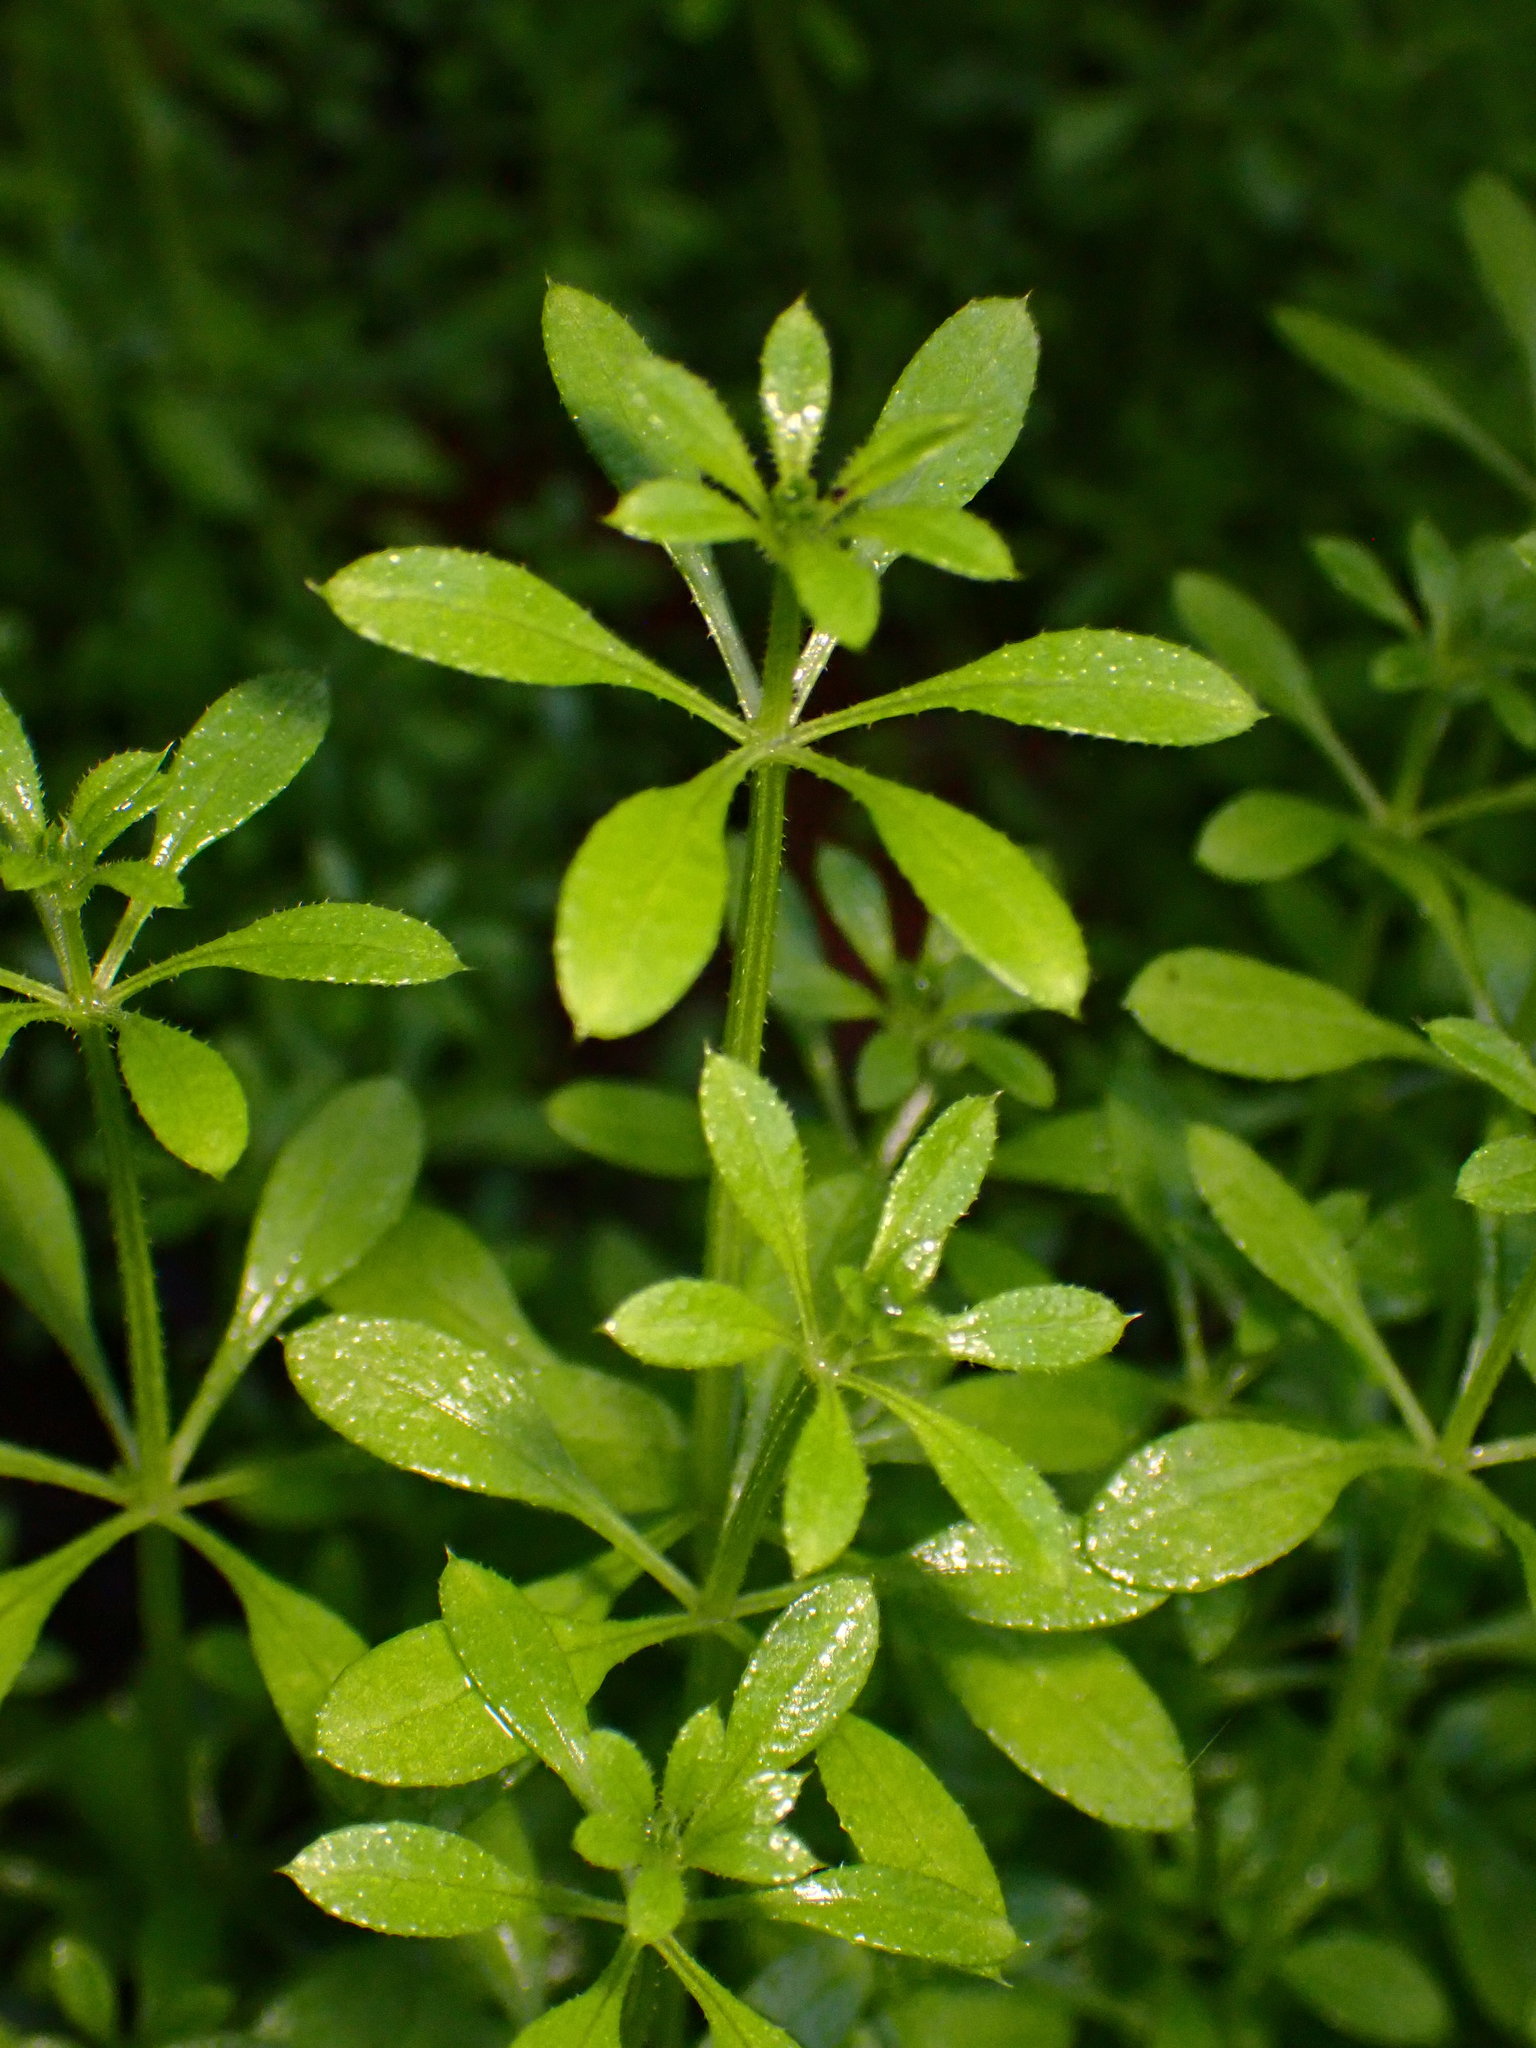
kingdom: Plantae
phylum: Tracheophyta
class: Magnoliopsida
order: Gentianales
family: Rubiaceae
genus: Galium
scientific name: Galium aparine
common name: Cleavers
